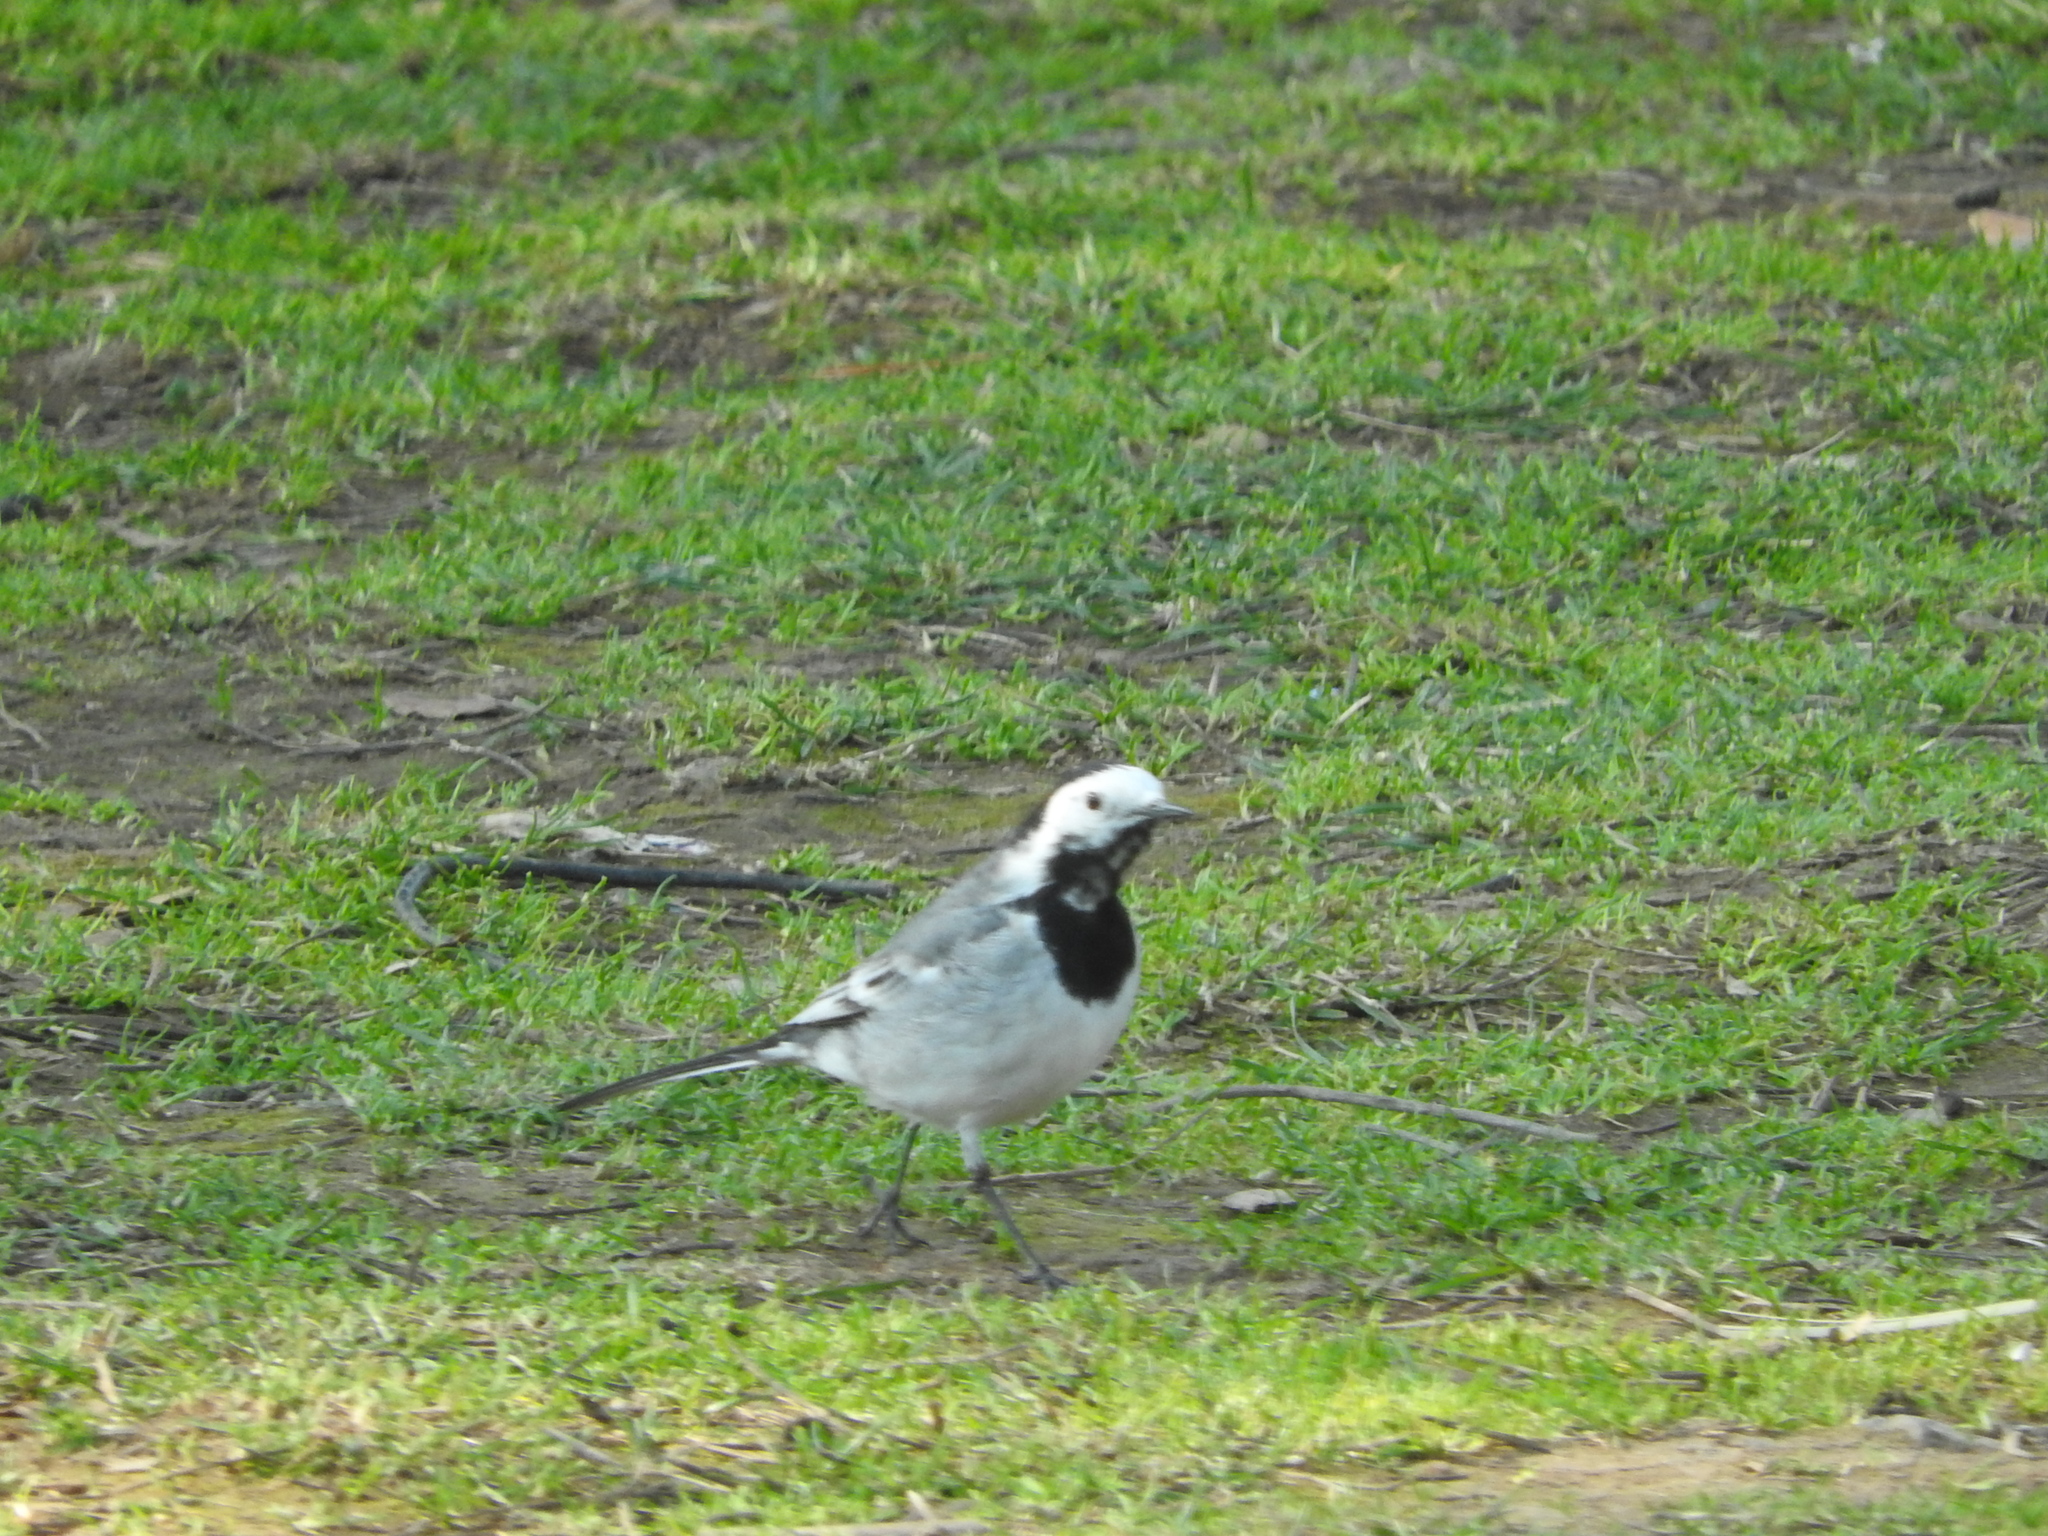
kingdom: Animalia
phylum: Chordata
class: Aves
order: Passeriformes
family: Motacillidae
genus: Motacilla
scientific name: Motacilla alba
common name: White wagtail
